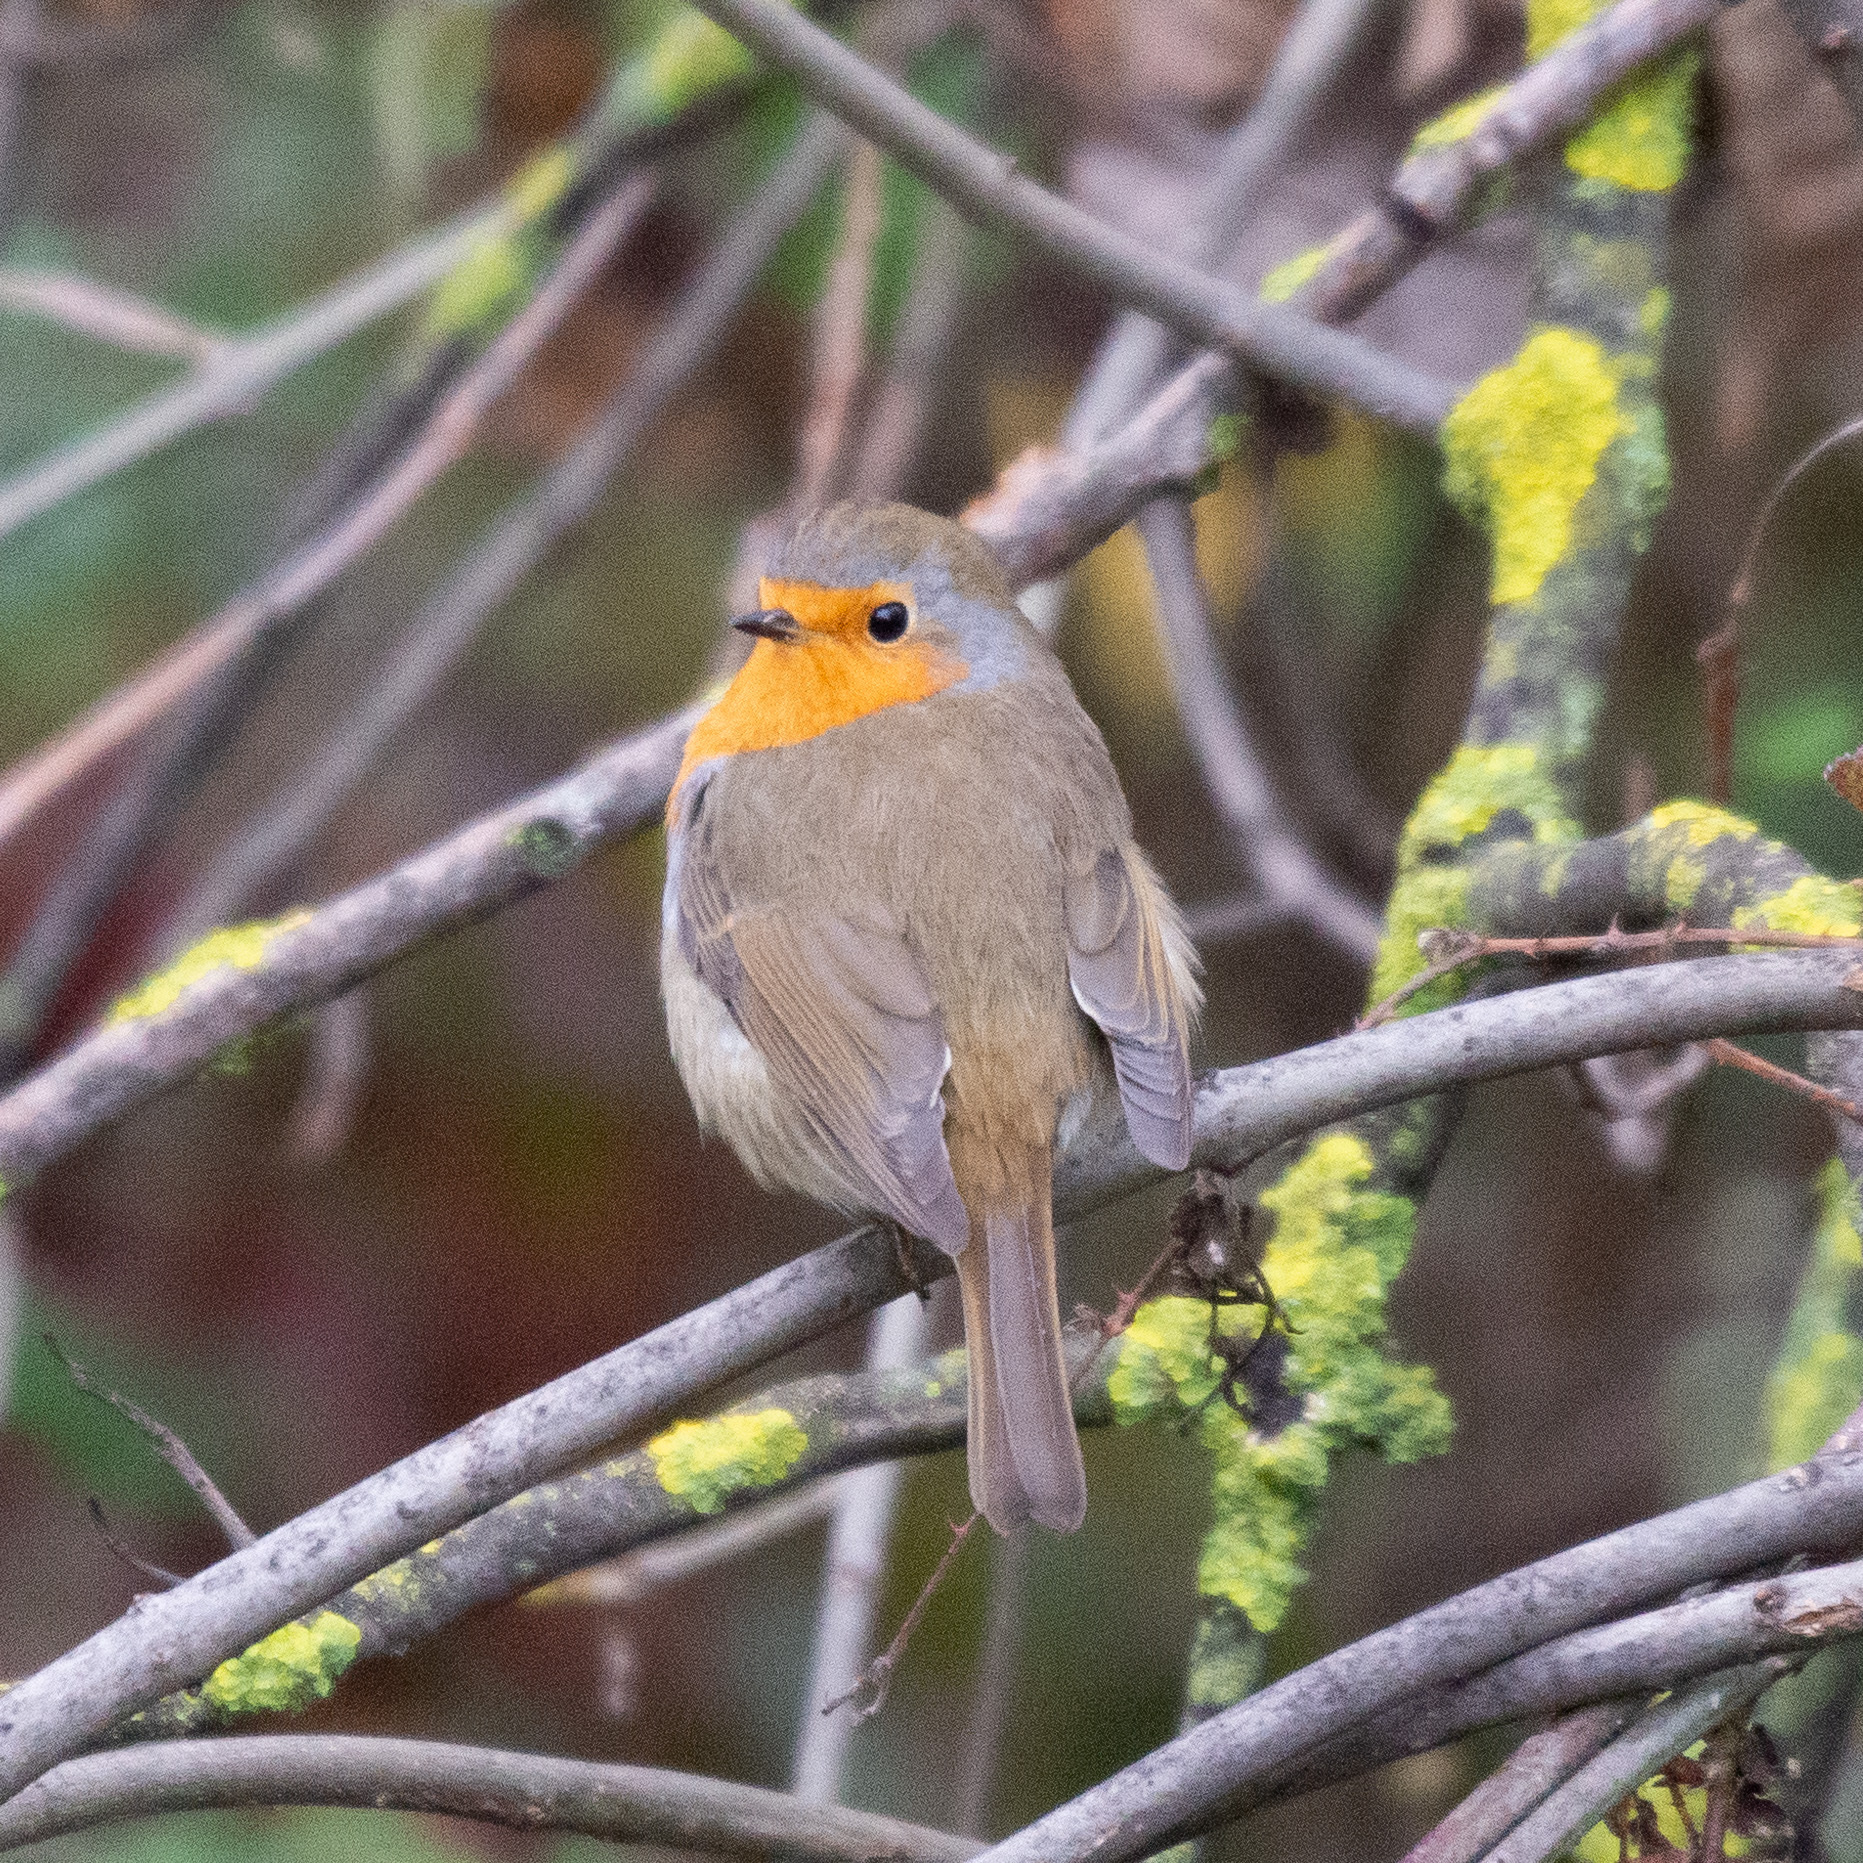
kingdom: Animalia
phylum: Chordata
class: Aves
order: Passeriformes
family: Muscicapidae
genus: Erithacus
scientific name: Erithacus rubecula
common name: European robin
